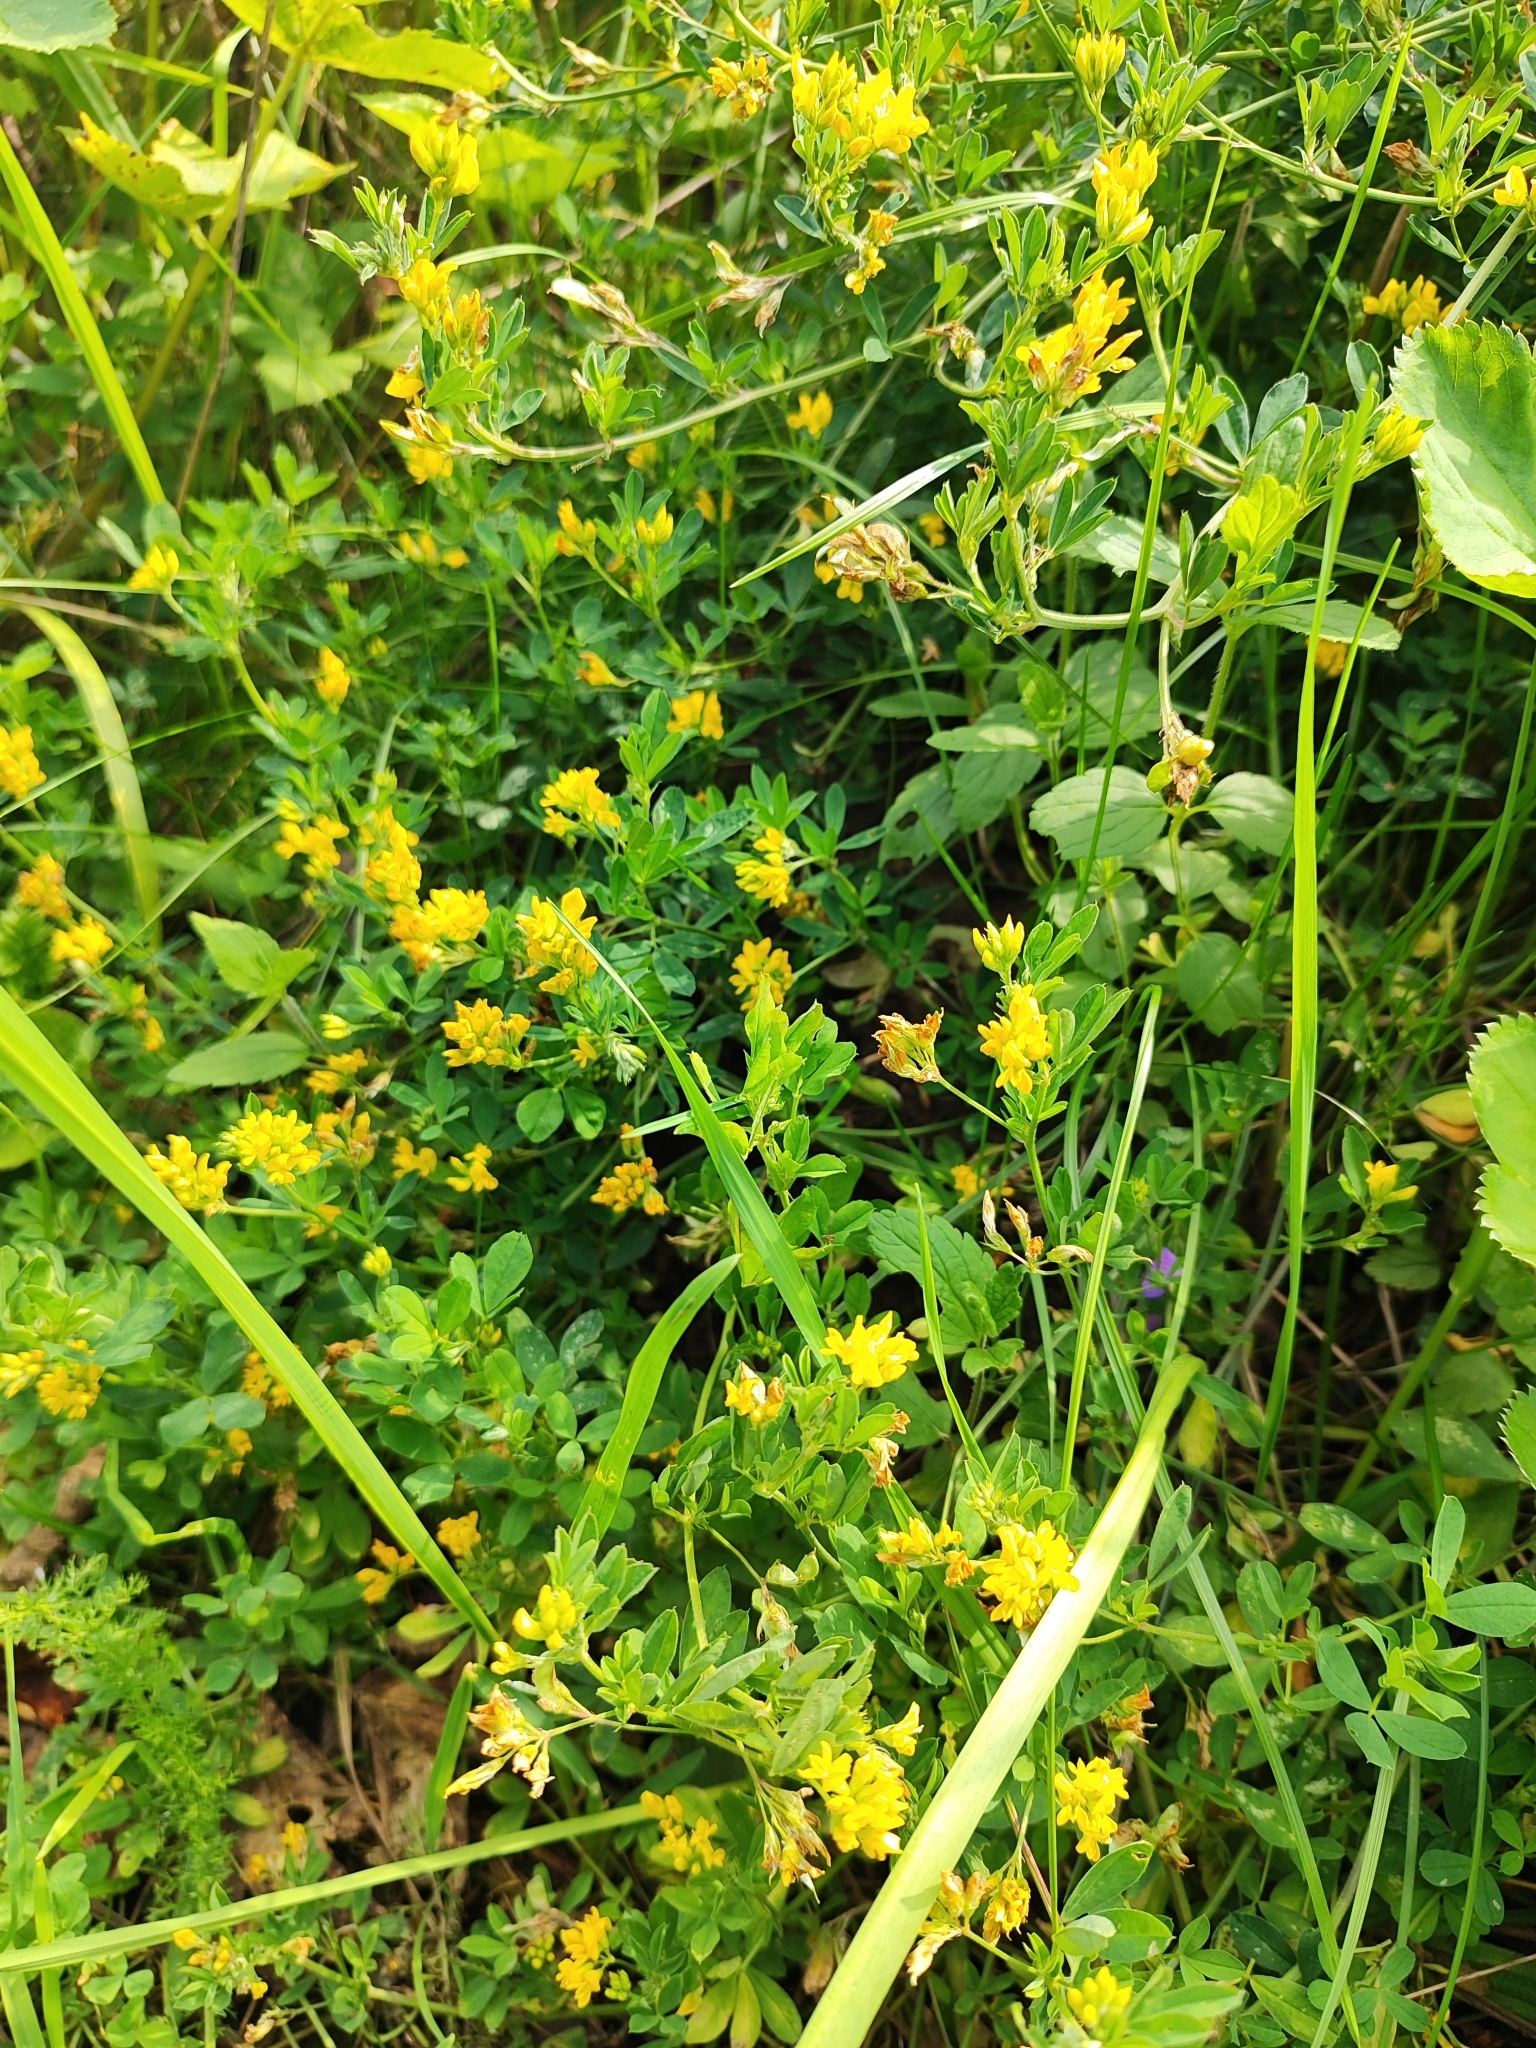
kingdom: Plantae
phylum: Tracheophyta
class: Magnoliopsida
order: Fabales
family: Fabaceae
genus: Medicago
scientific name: Medicago falcata
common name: Sickle medick
